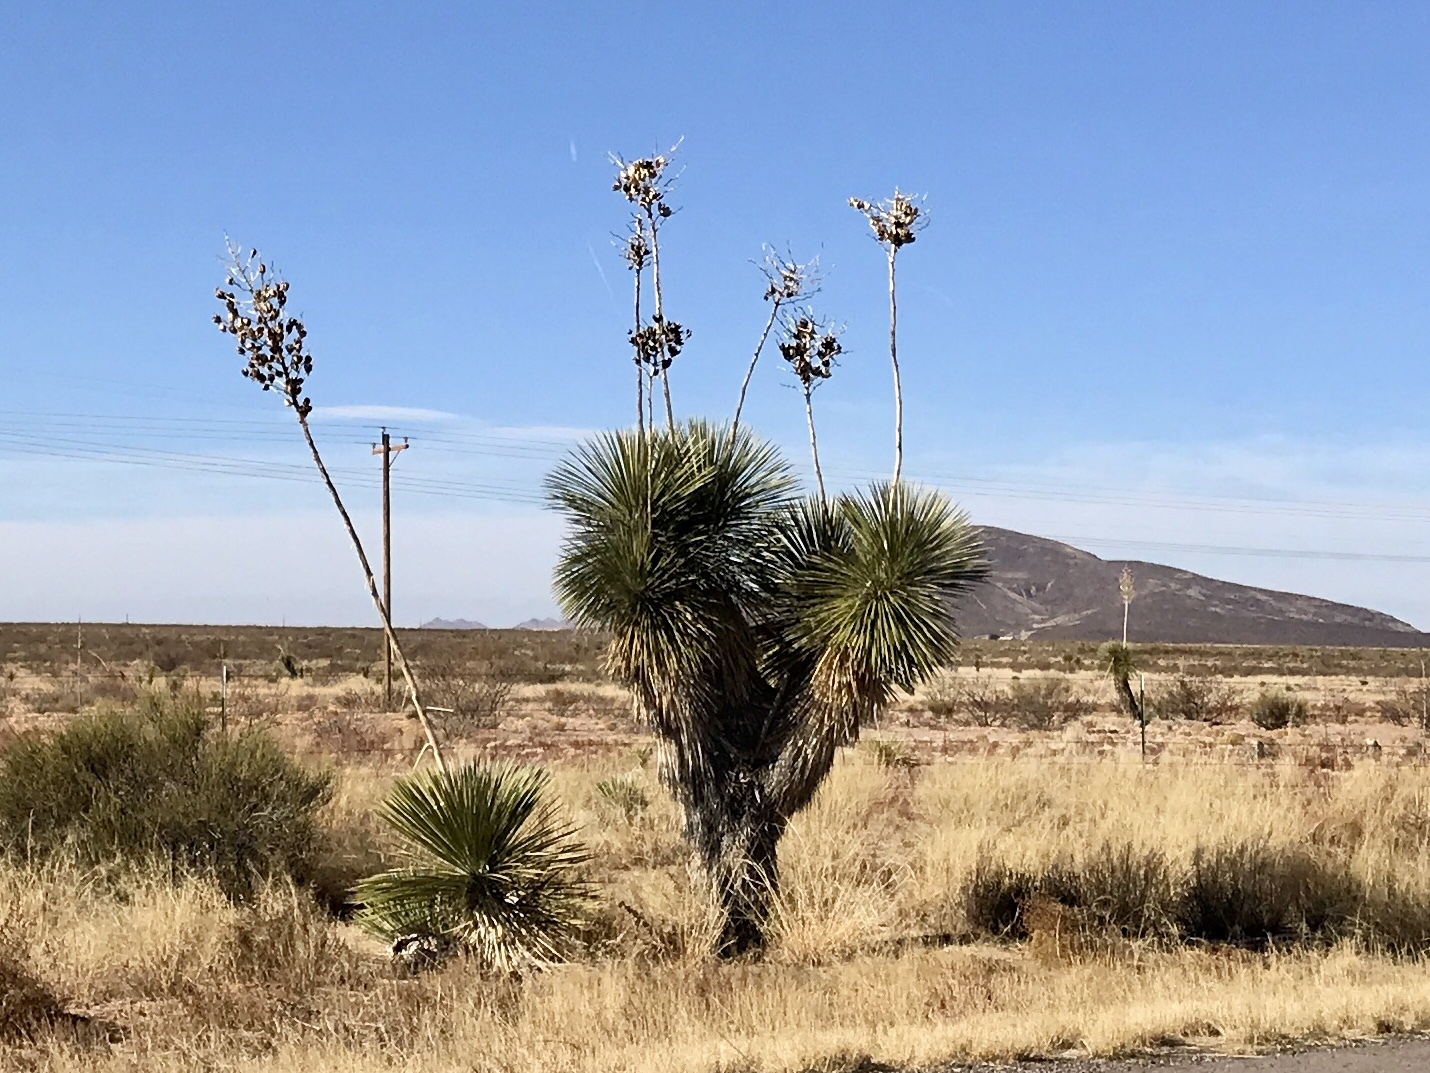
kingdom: Plantae
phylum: Tracheophyta
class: Liliopsida
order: Asparagales
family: Asparagaceae
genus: Yucca
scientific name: Yucca elata
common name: Palmella
